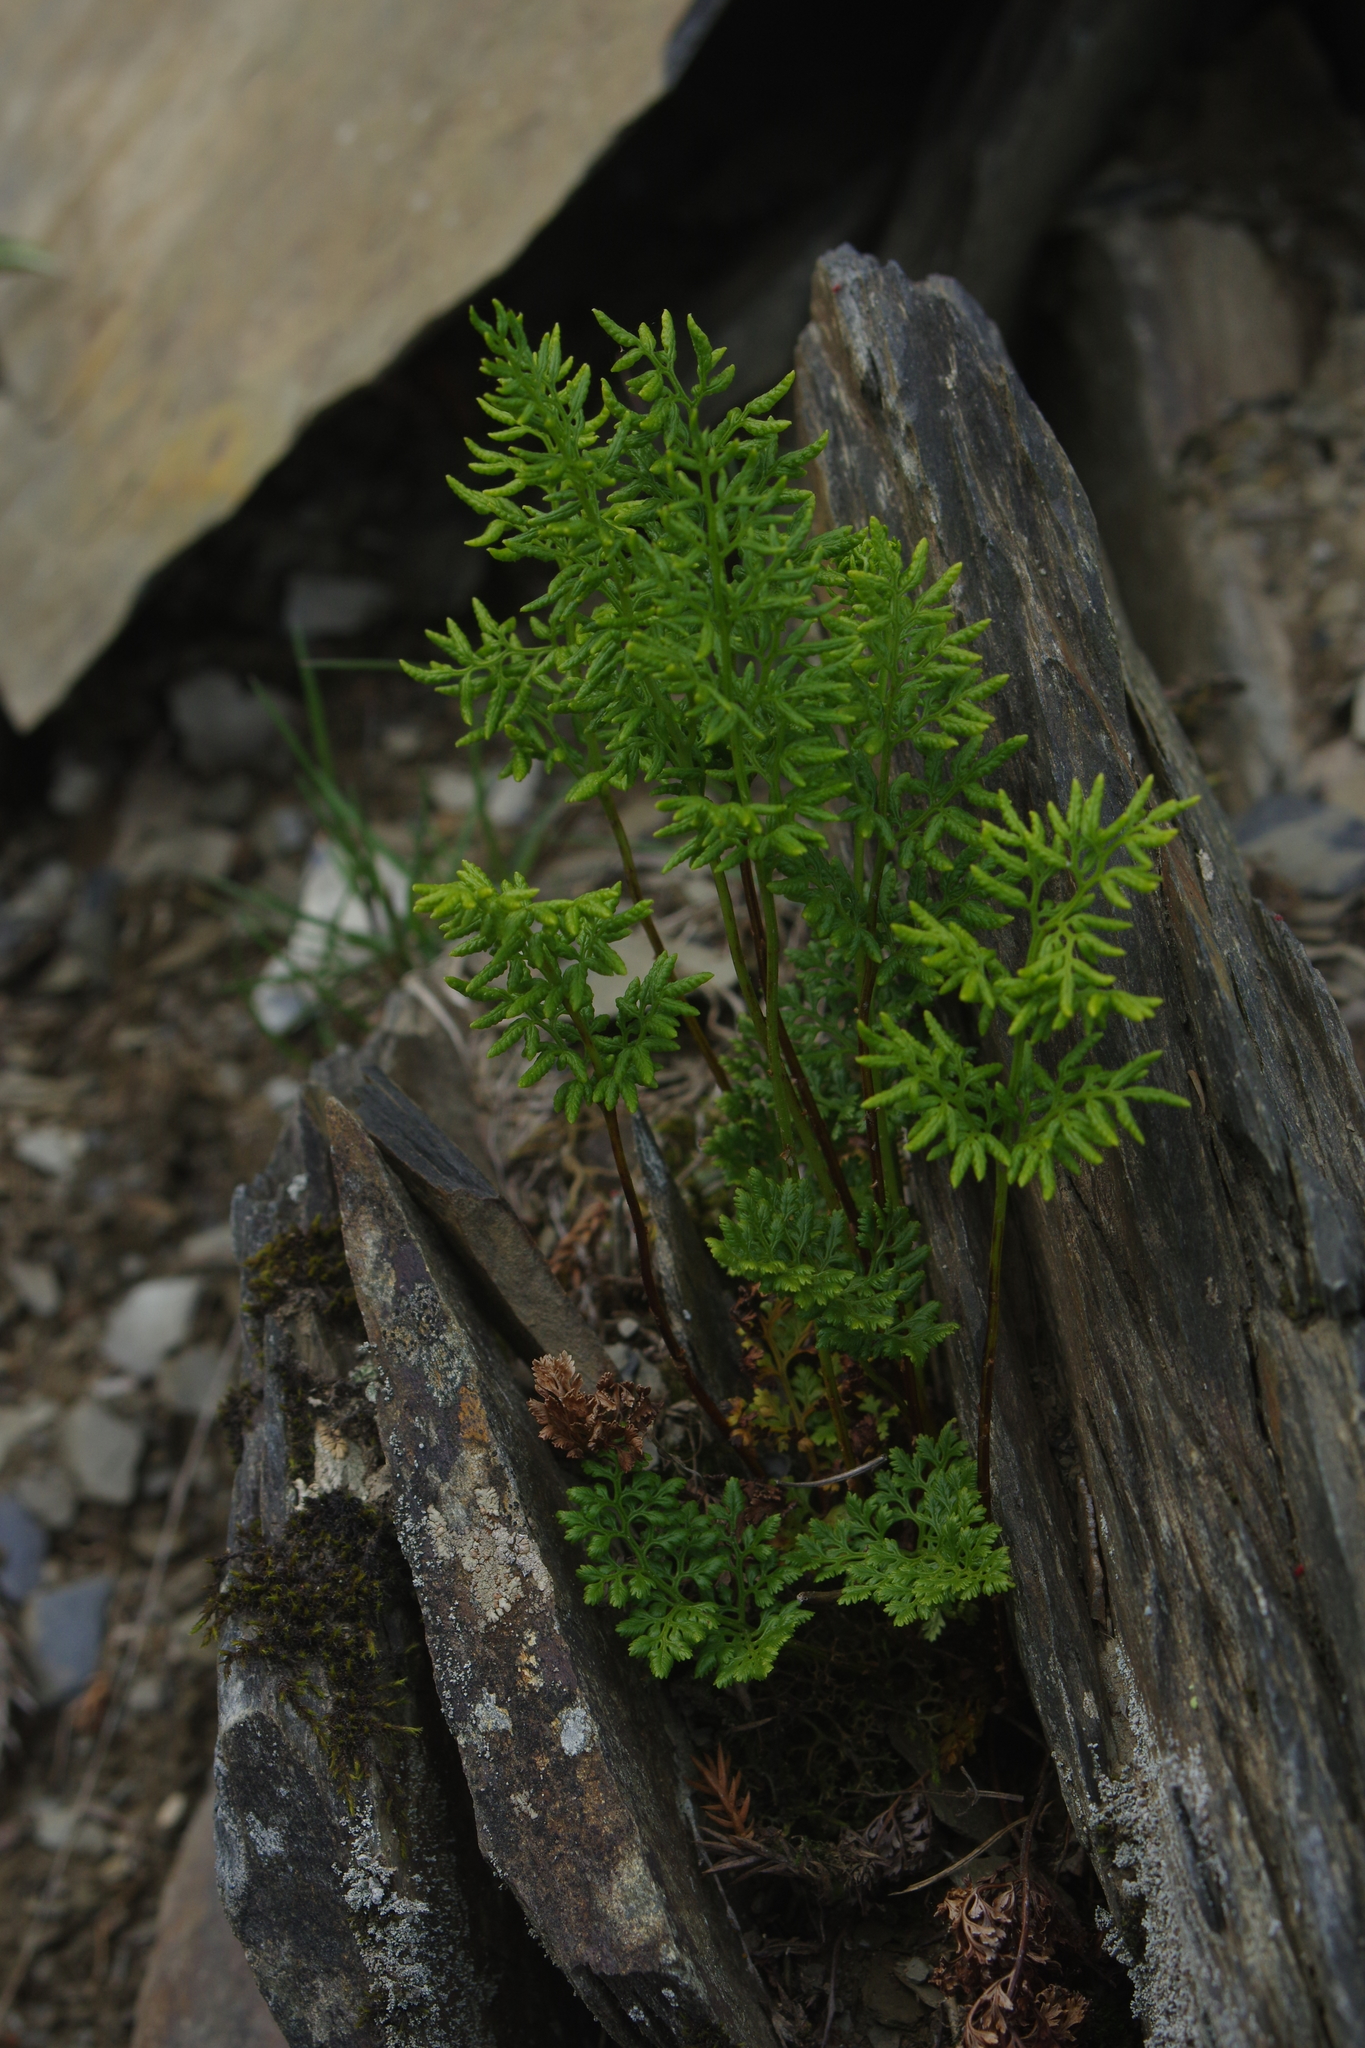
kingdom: Plantae
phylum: Tracheophyta
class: Polypodiopsida
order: Polypodiales
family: Pteridaceae
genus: Cryptogramma
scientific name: Cryptogramma brunoniana
